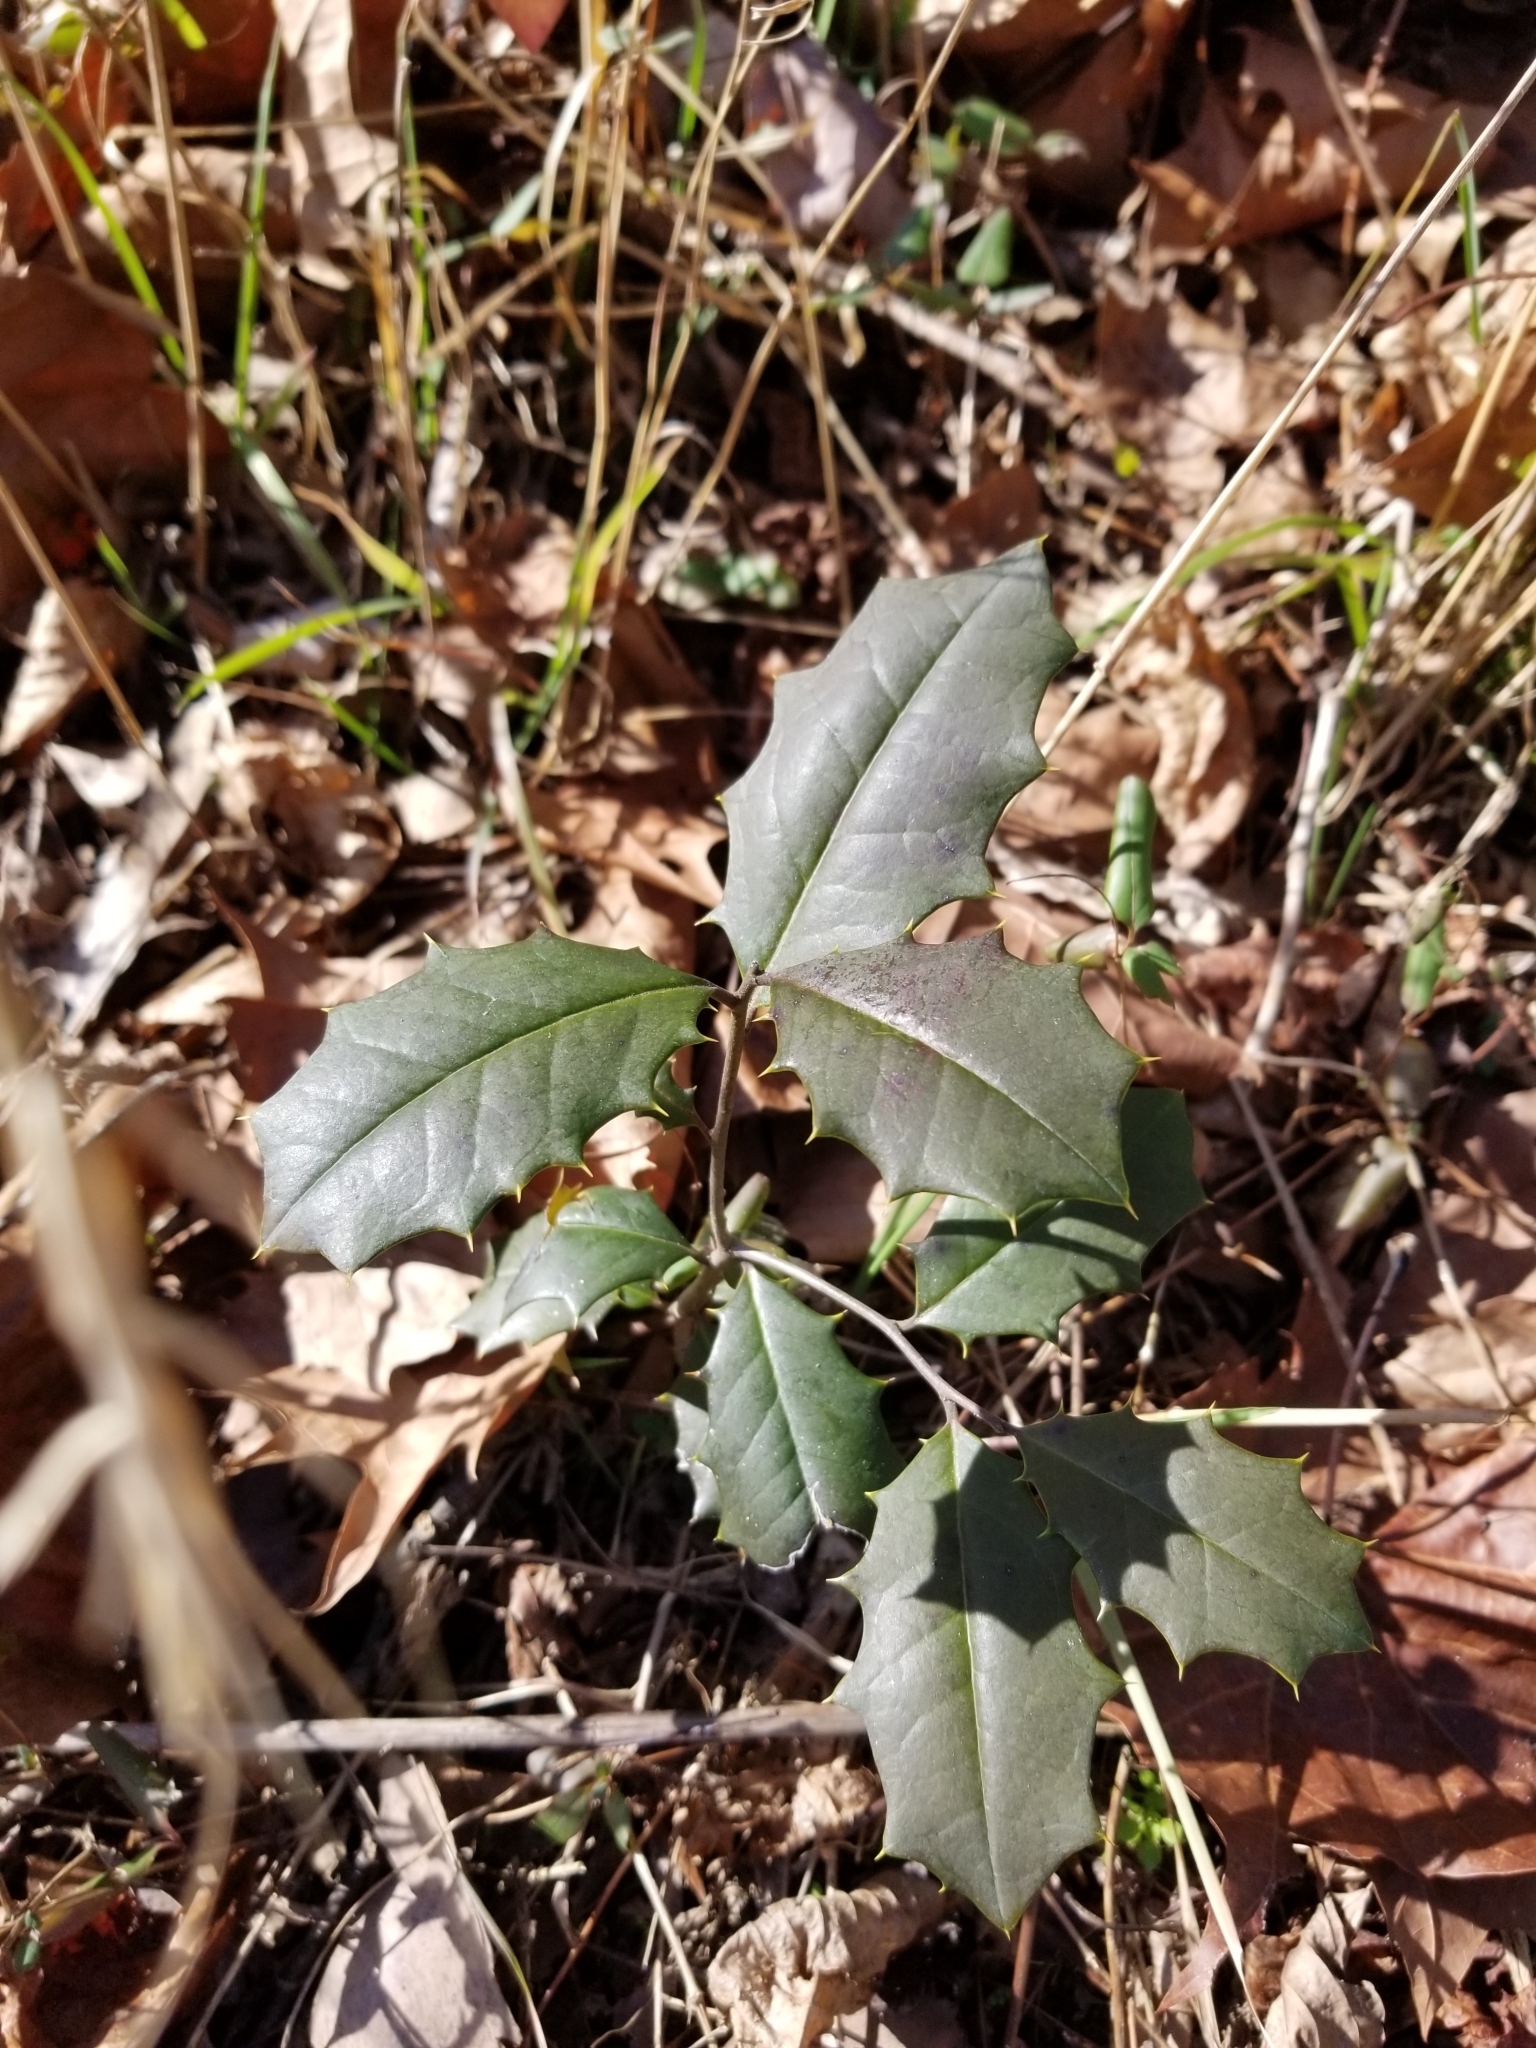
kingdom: Plantae
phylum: Tracheophyta
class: Magnoliopsida
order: Aquifoliales
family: Aquifoliaceae
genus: Ilex
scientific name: Ilex opaca
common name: American holly
